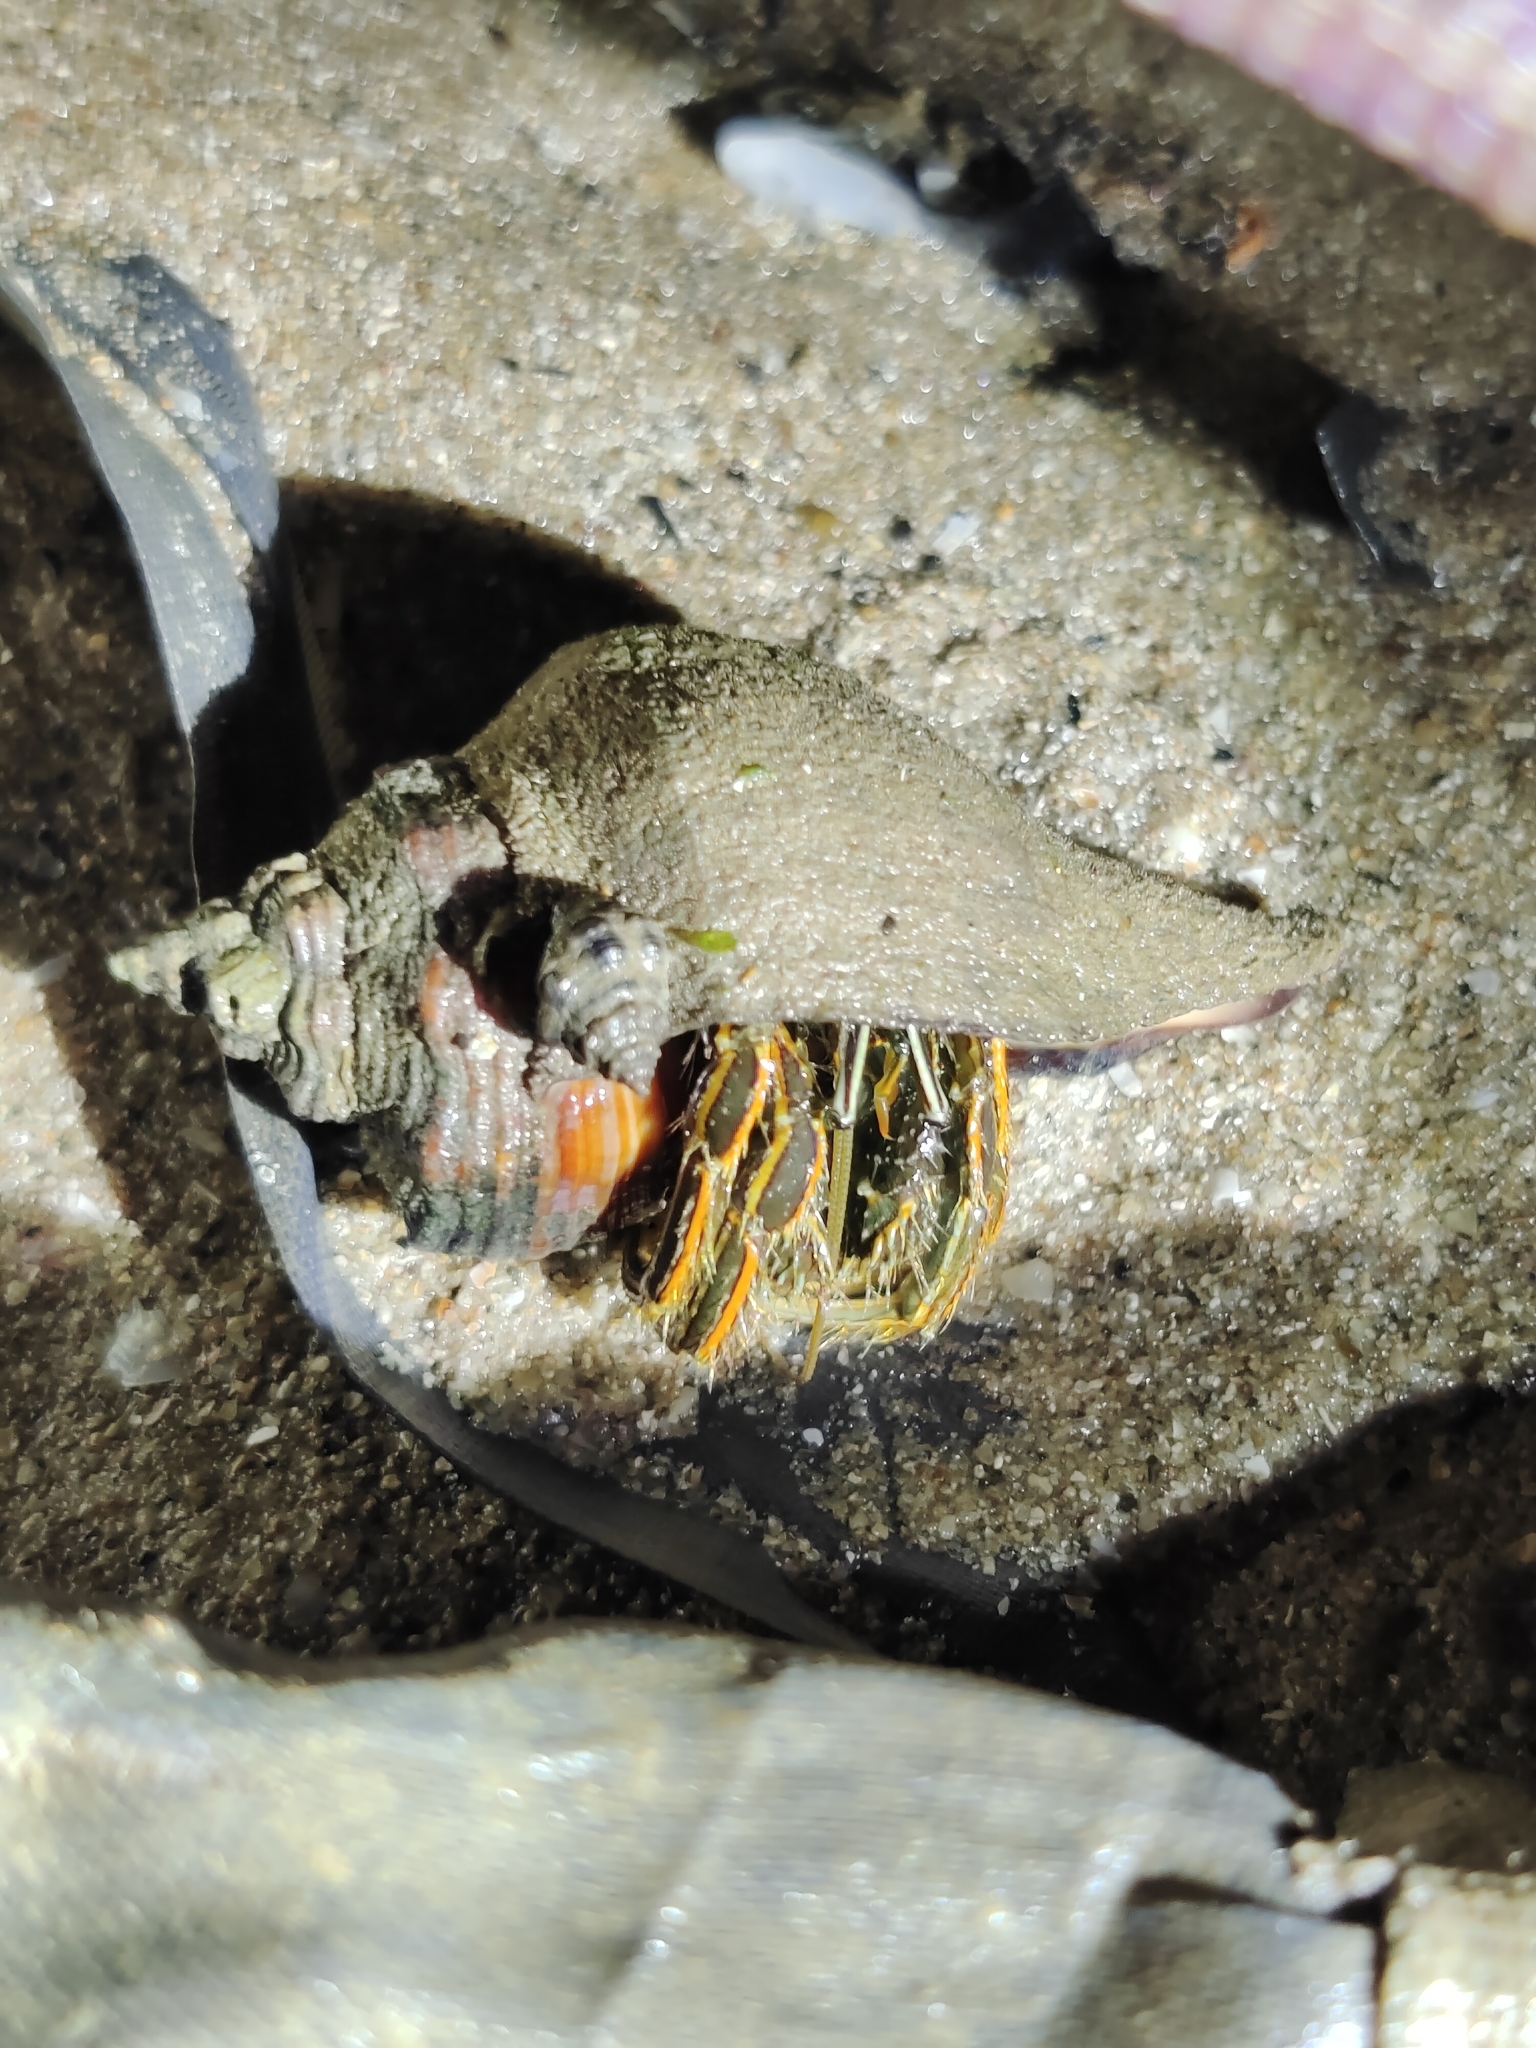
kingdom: Animalia
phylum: Arthropoda
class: Malacostraca
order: Decapoda
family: Diogenidae
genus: Clibanarius
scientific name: Clibanarius infraspinatus
